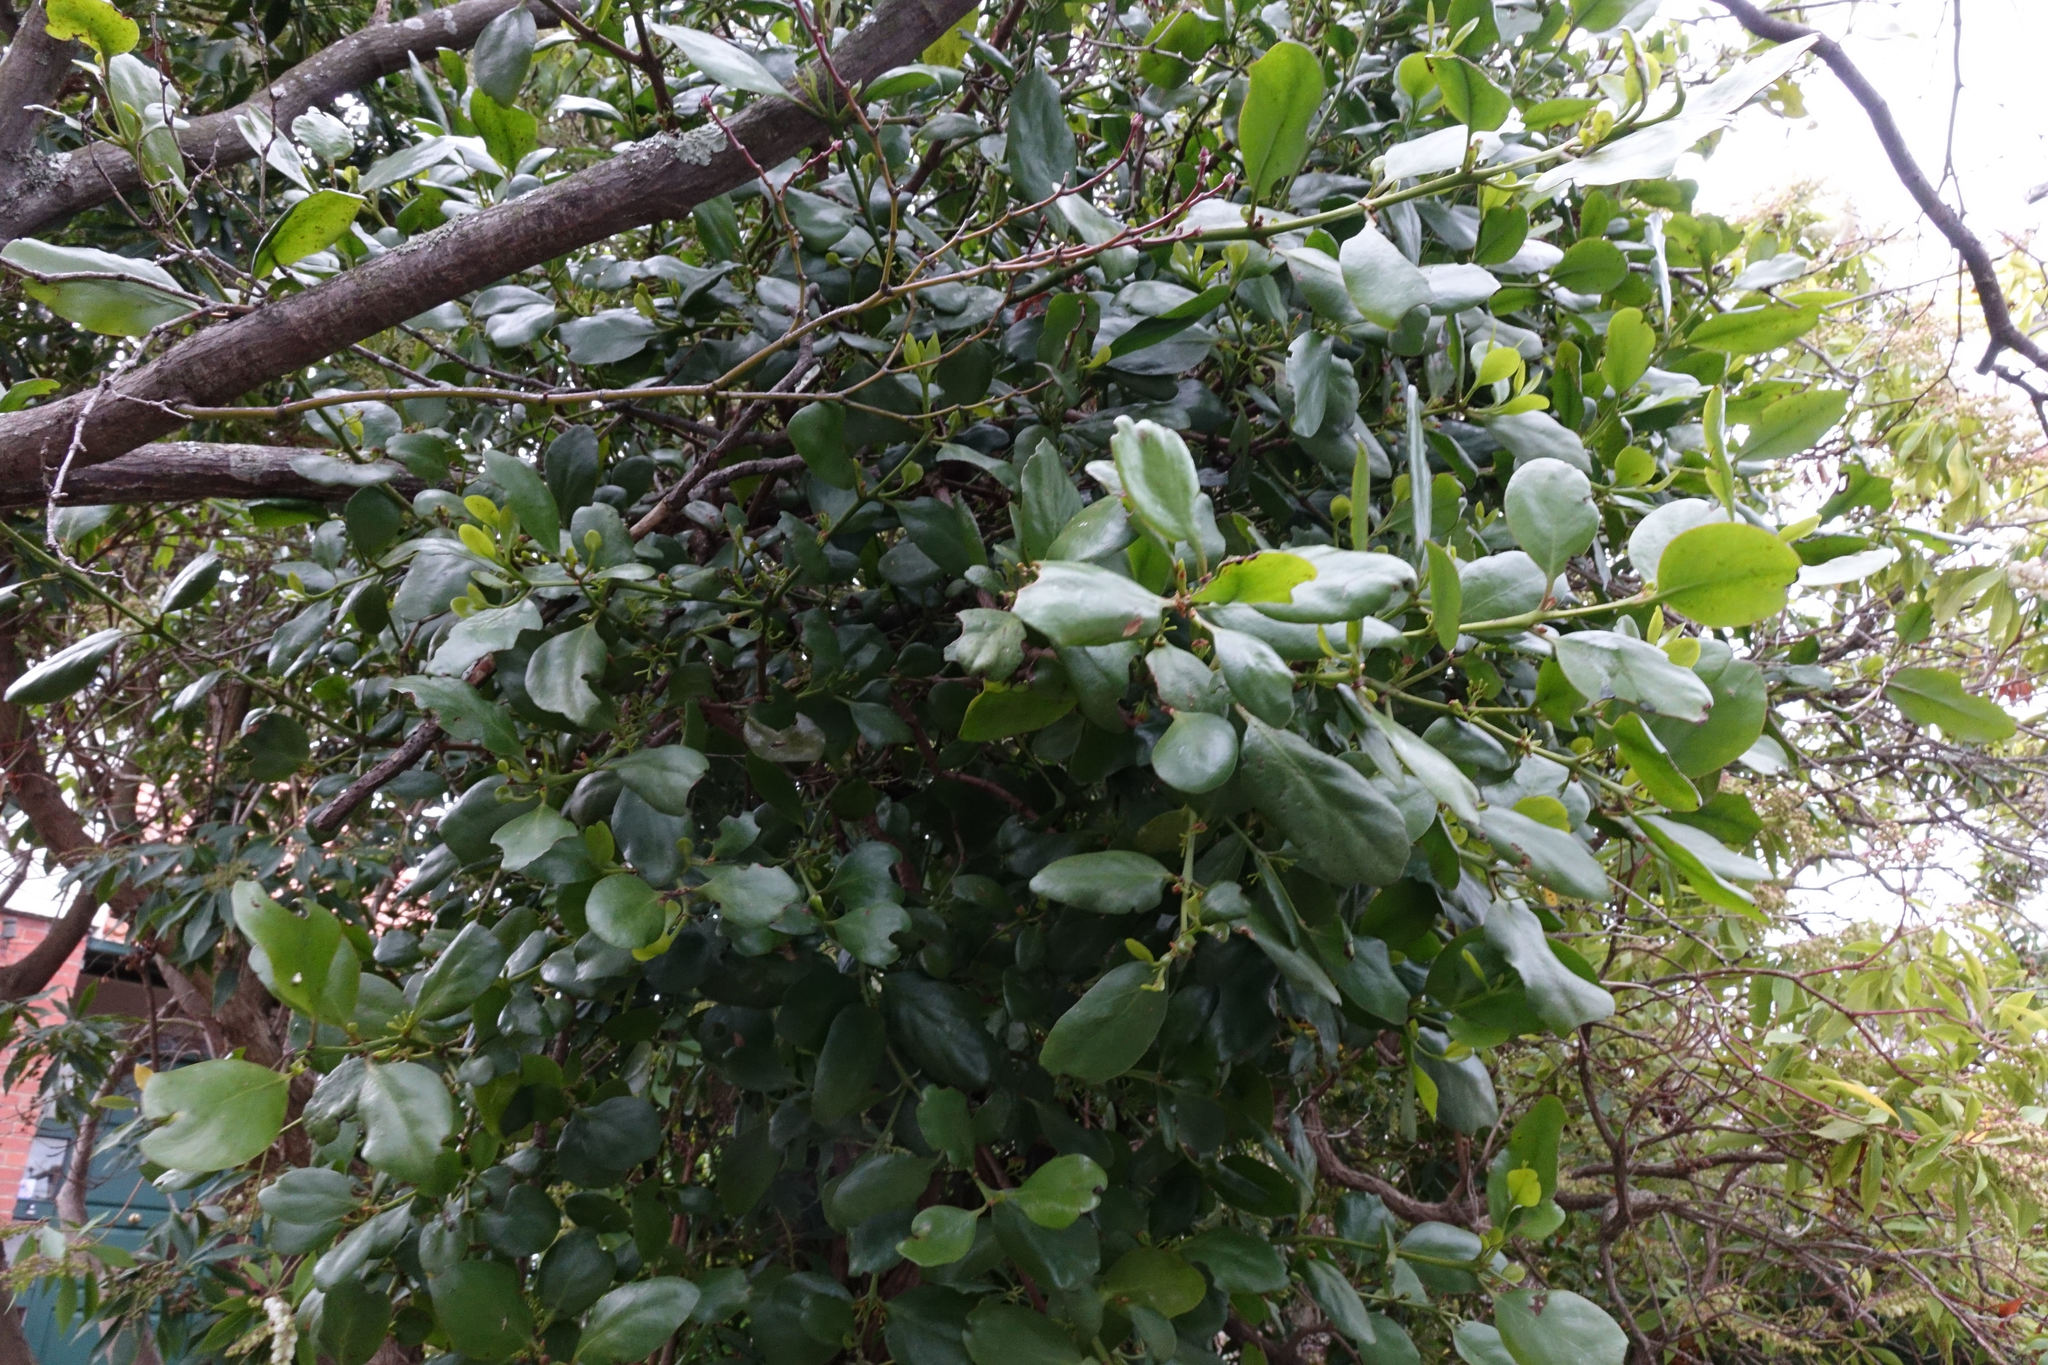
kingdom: Plantae
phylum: Tracheophyta
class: Magnoliopsida
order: Santalales
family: Loranthaceae
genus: Ileostylus
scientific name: Ileostylus micranthus
